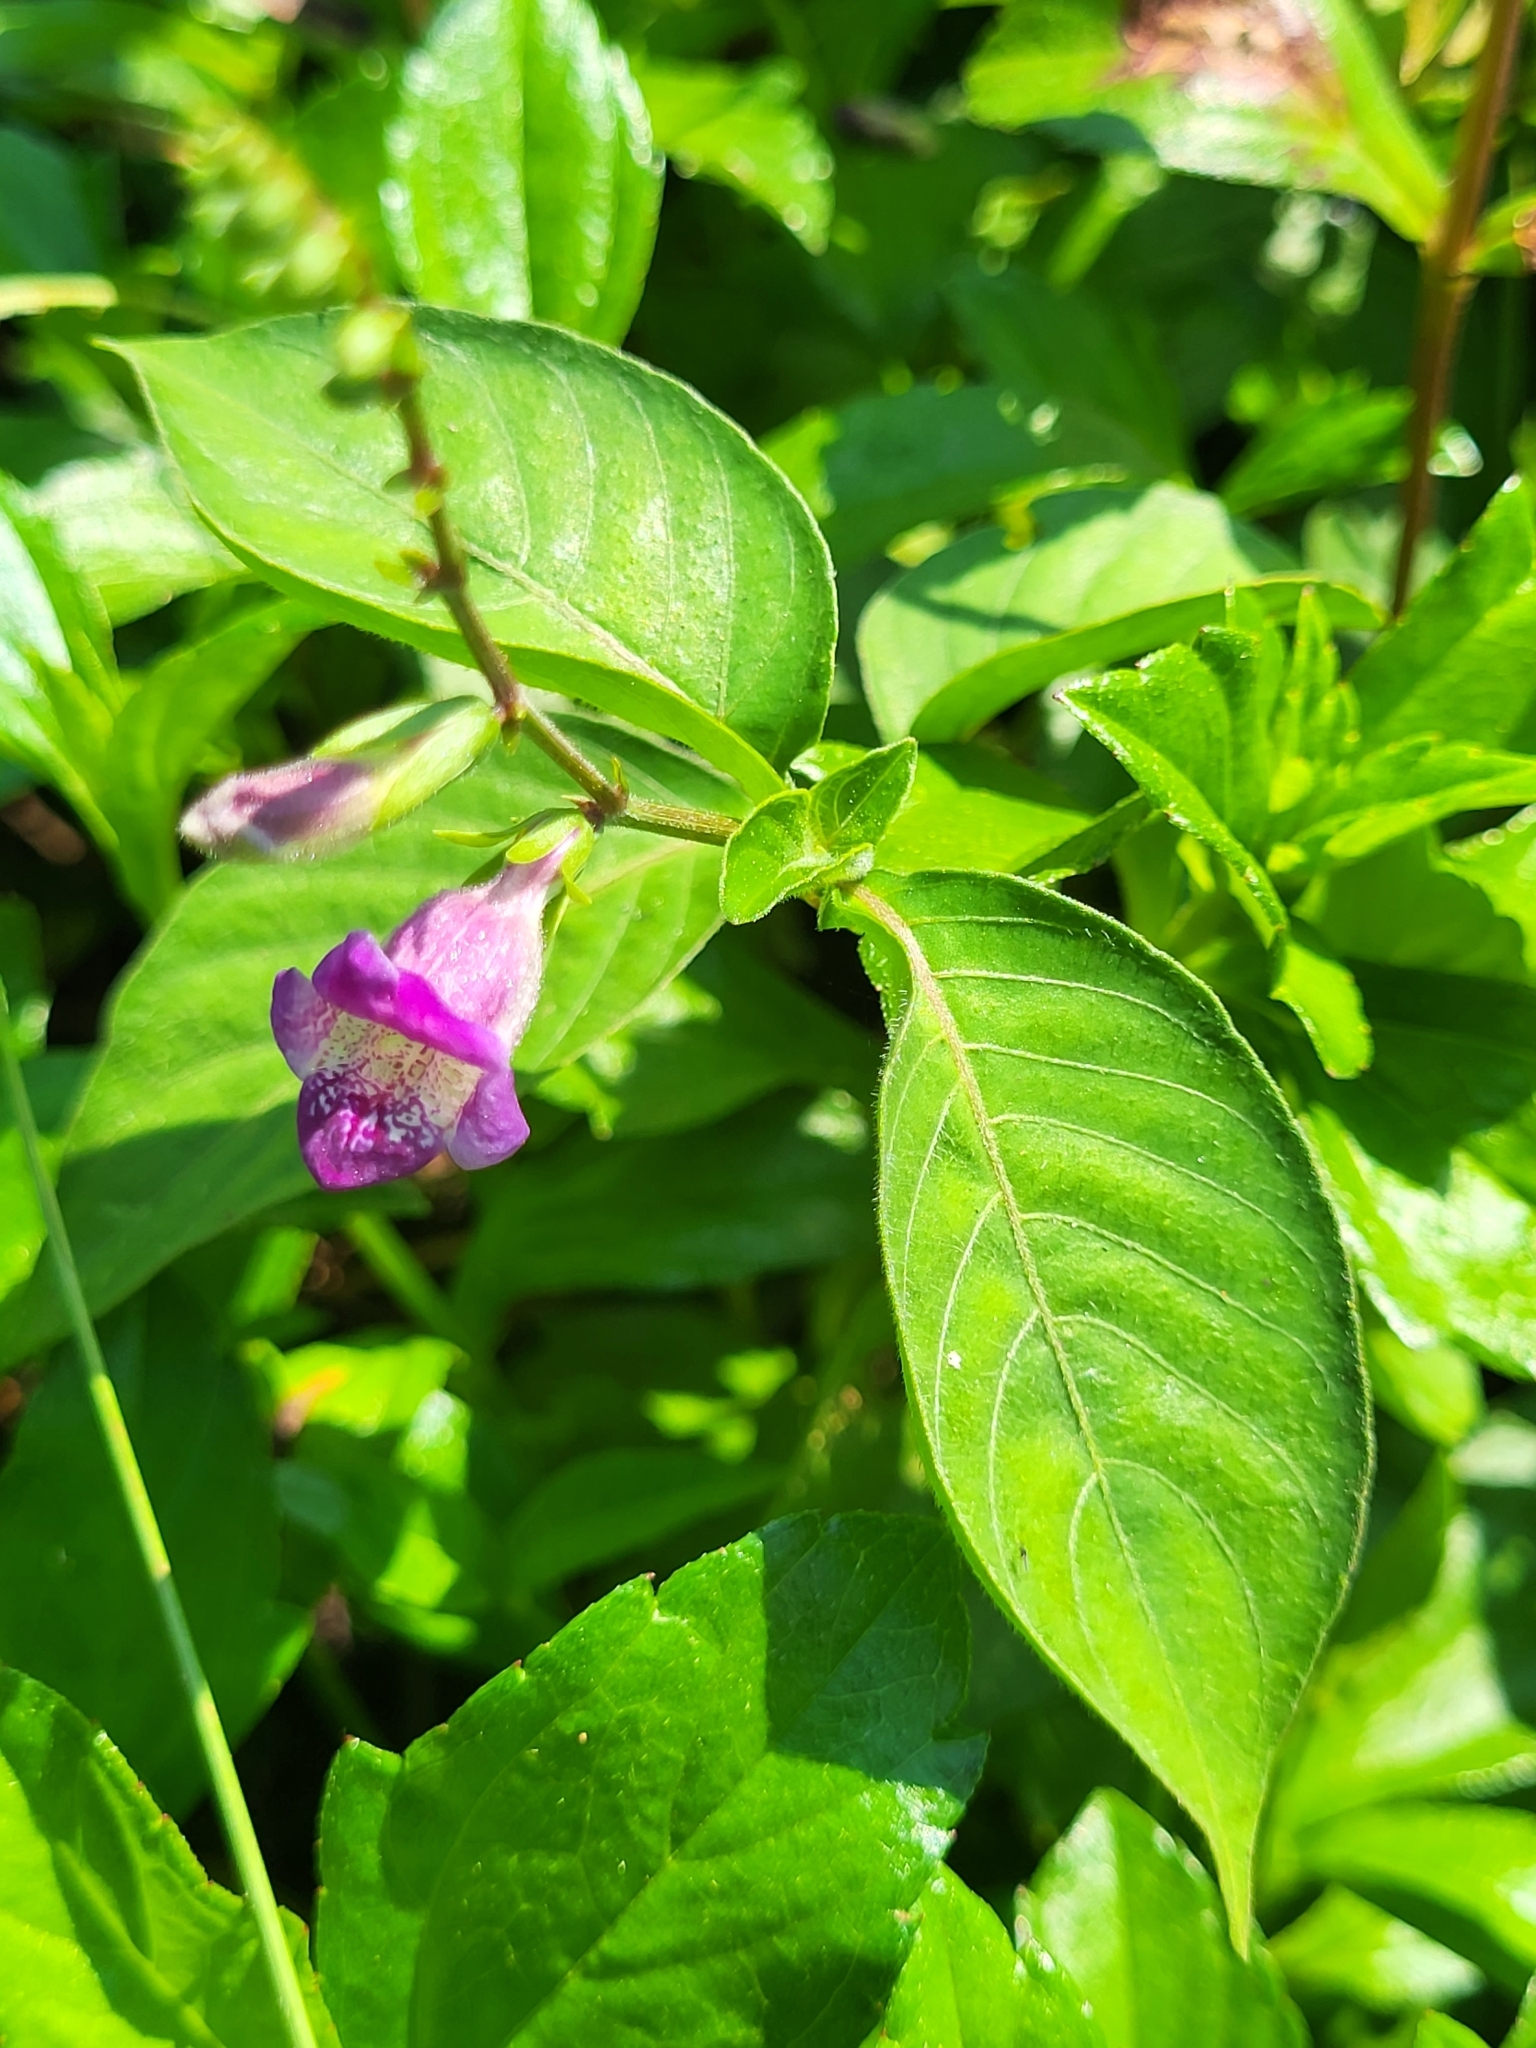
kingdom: Plantae
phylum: Tracheophyta
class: Magnoliopsida
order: Lamiales
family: Acanthaceae
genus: Asystasia
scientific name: Asystasia dalzelliana
